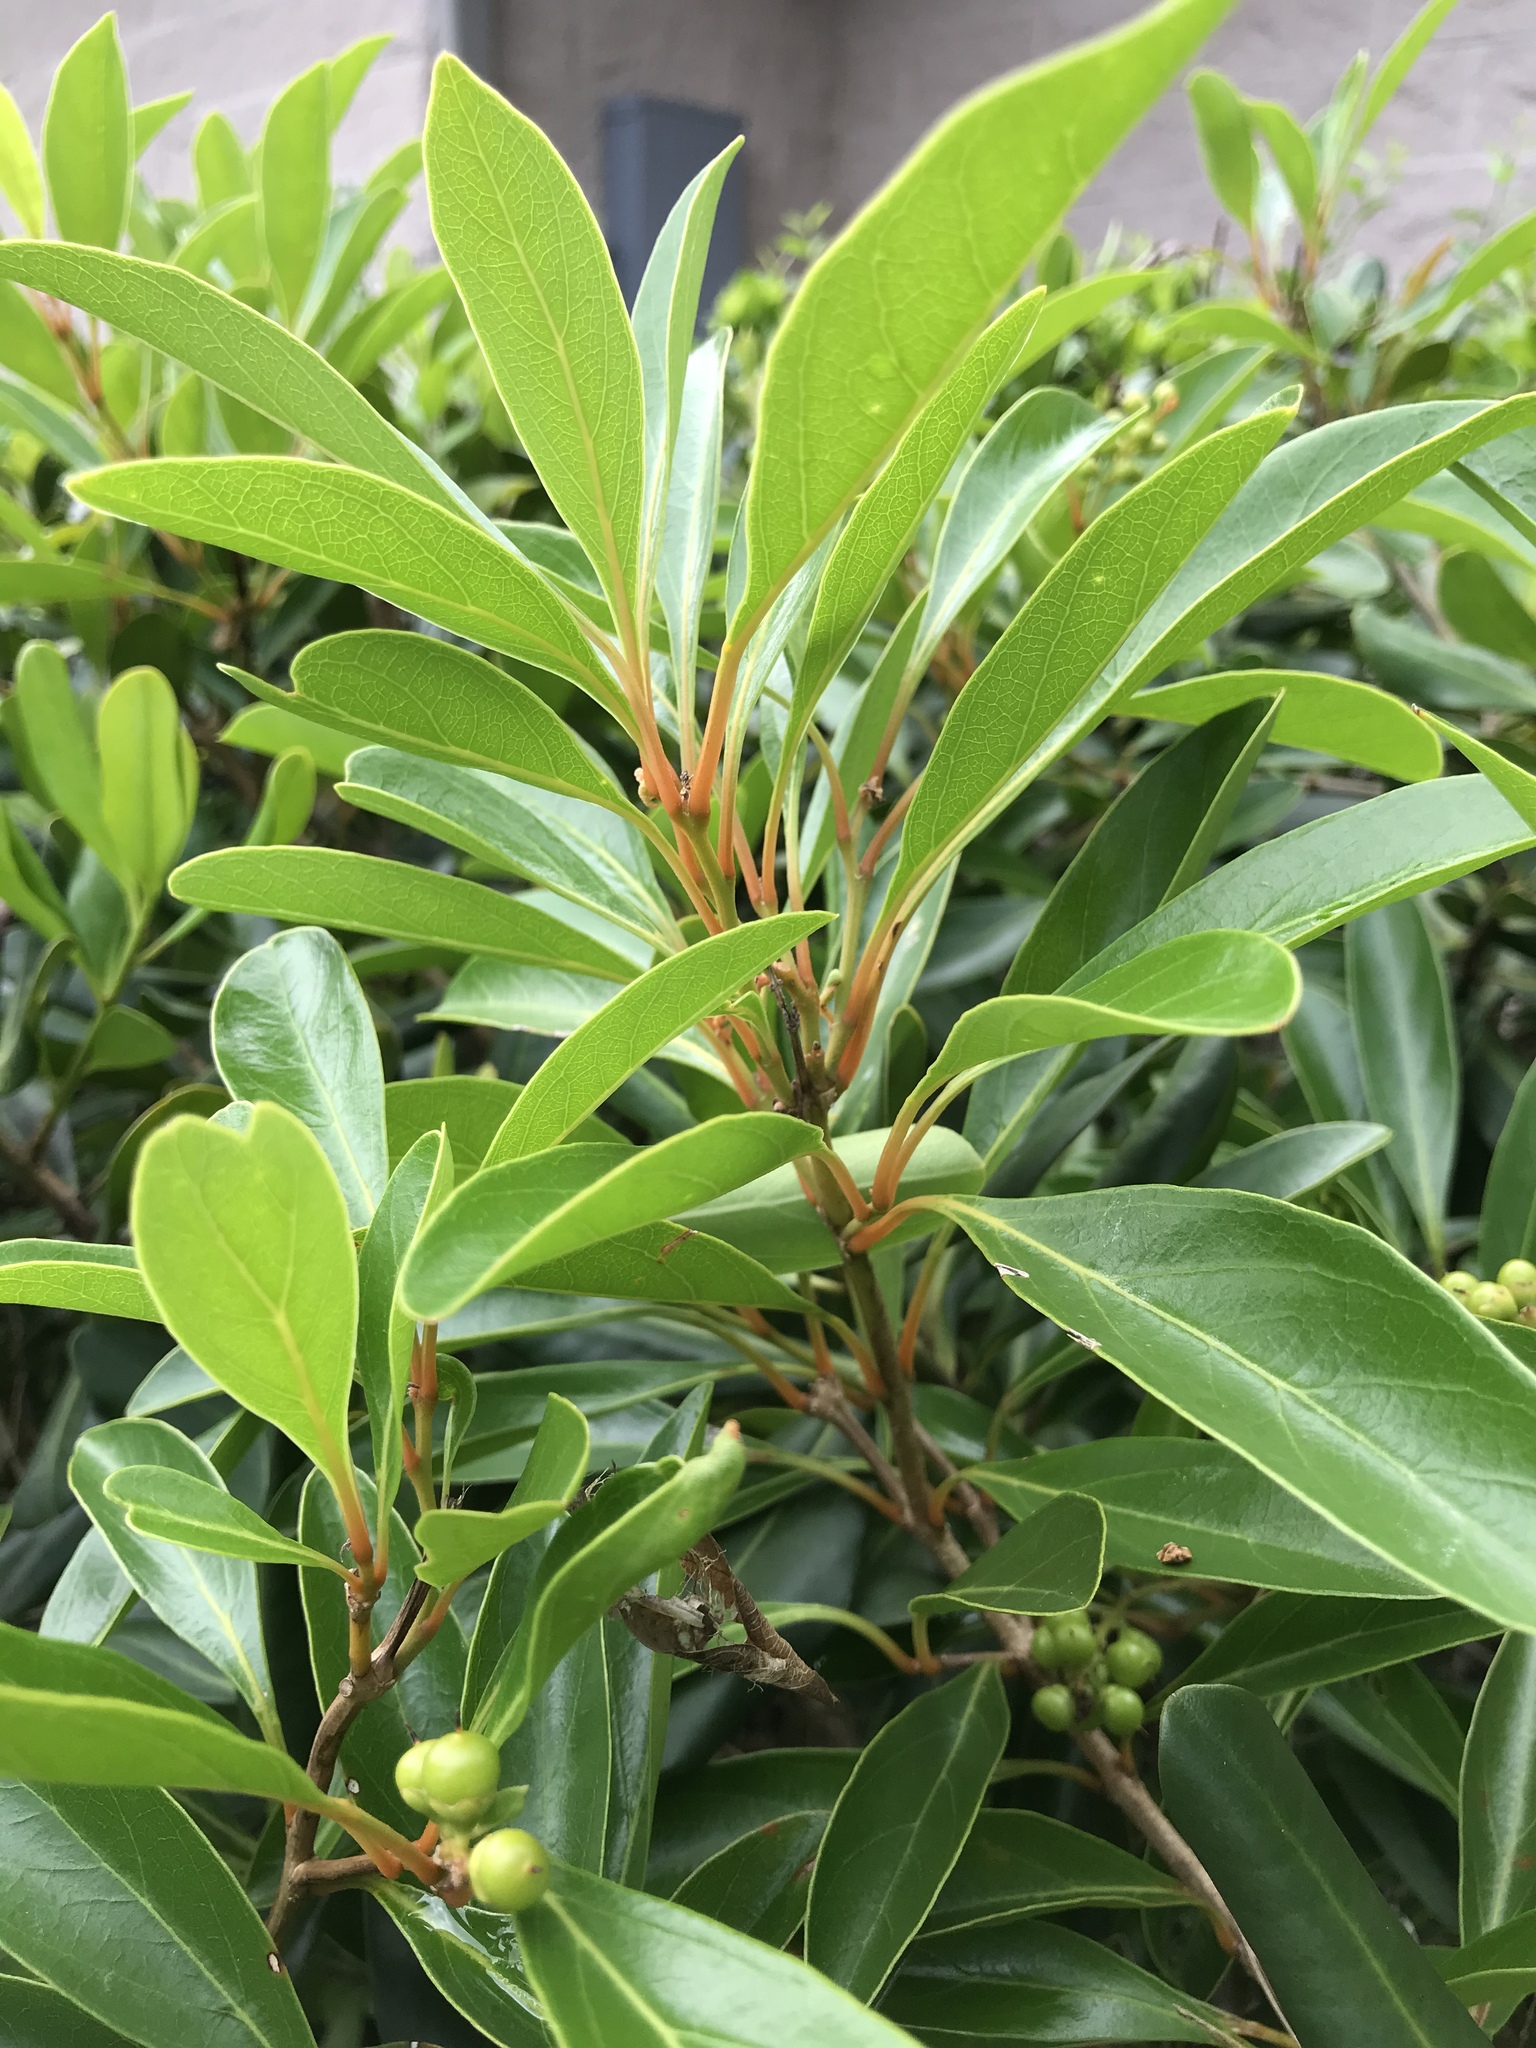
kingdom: Plantae
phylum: Tracheophyta
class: Magnoliopsida
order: Lamiales
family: Verbenaceae
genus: Citharexylum
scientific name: Citharexylum spinosum
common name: Fiddlewood
